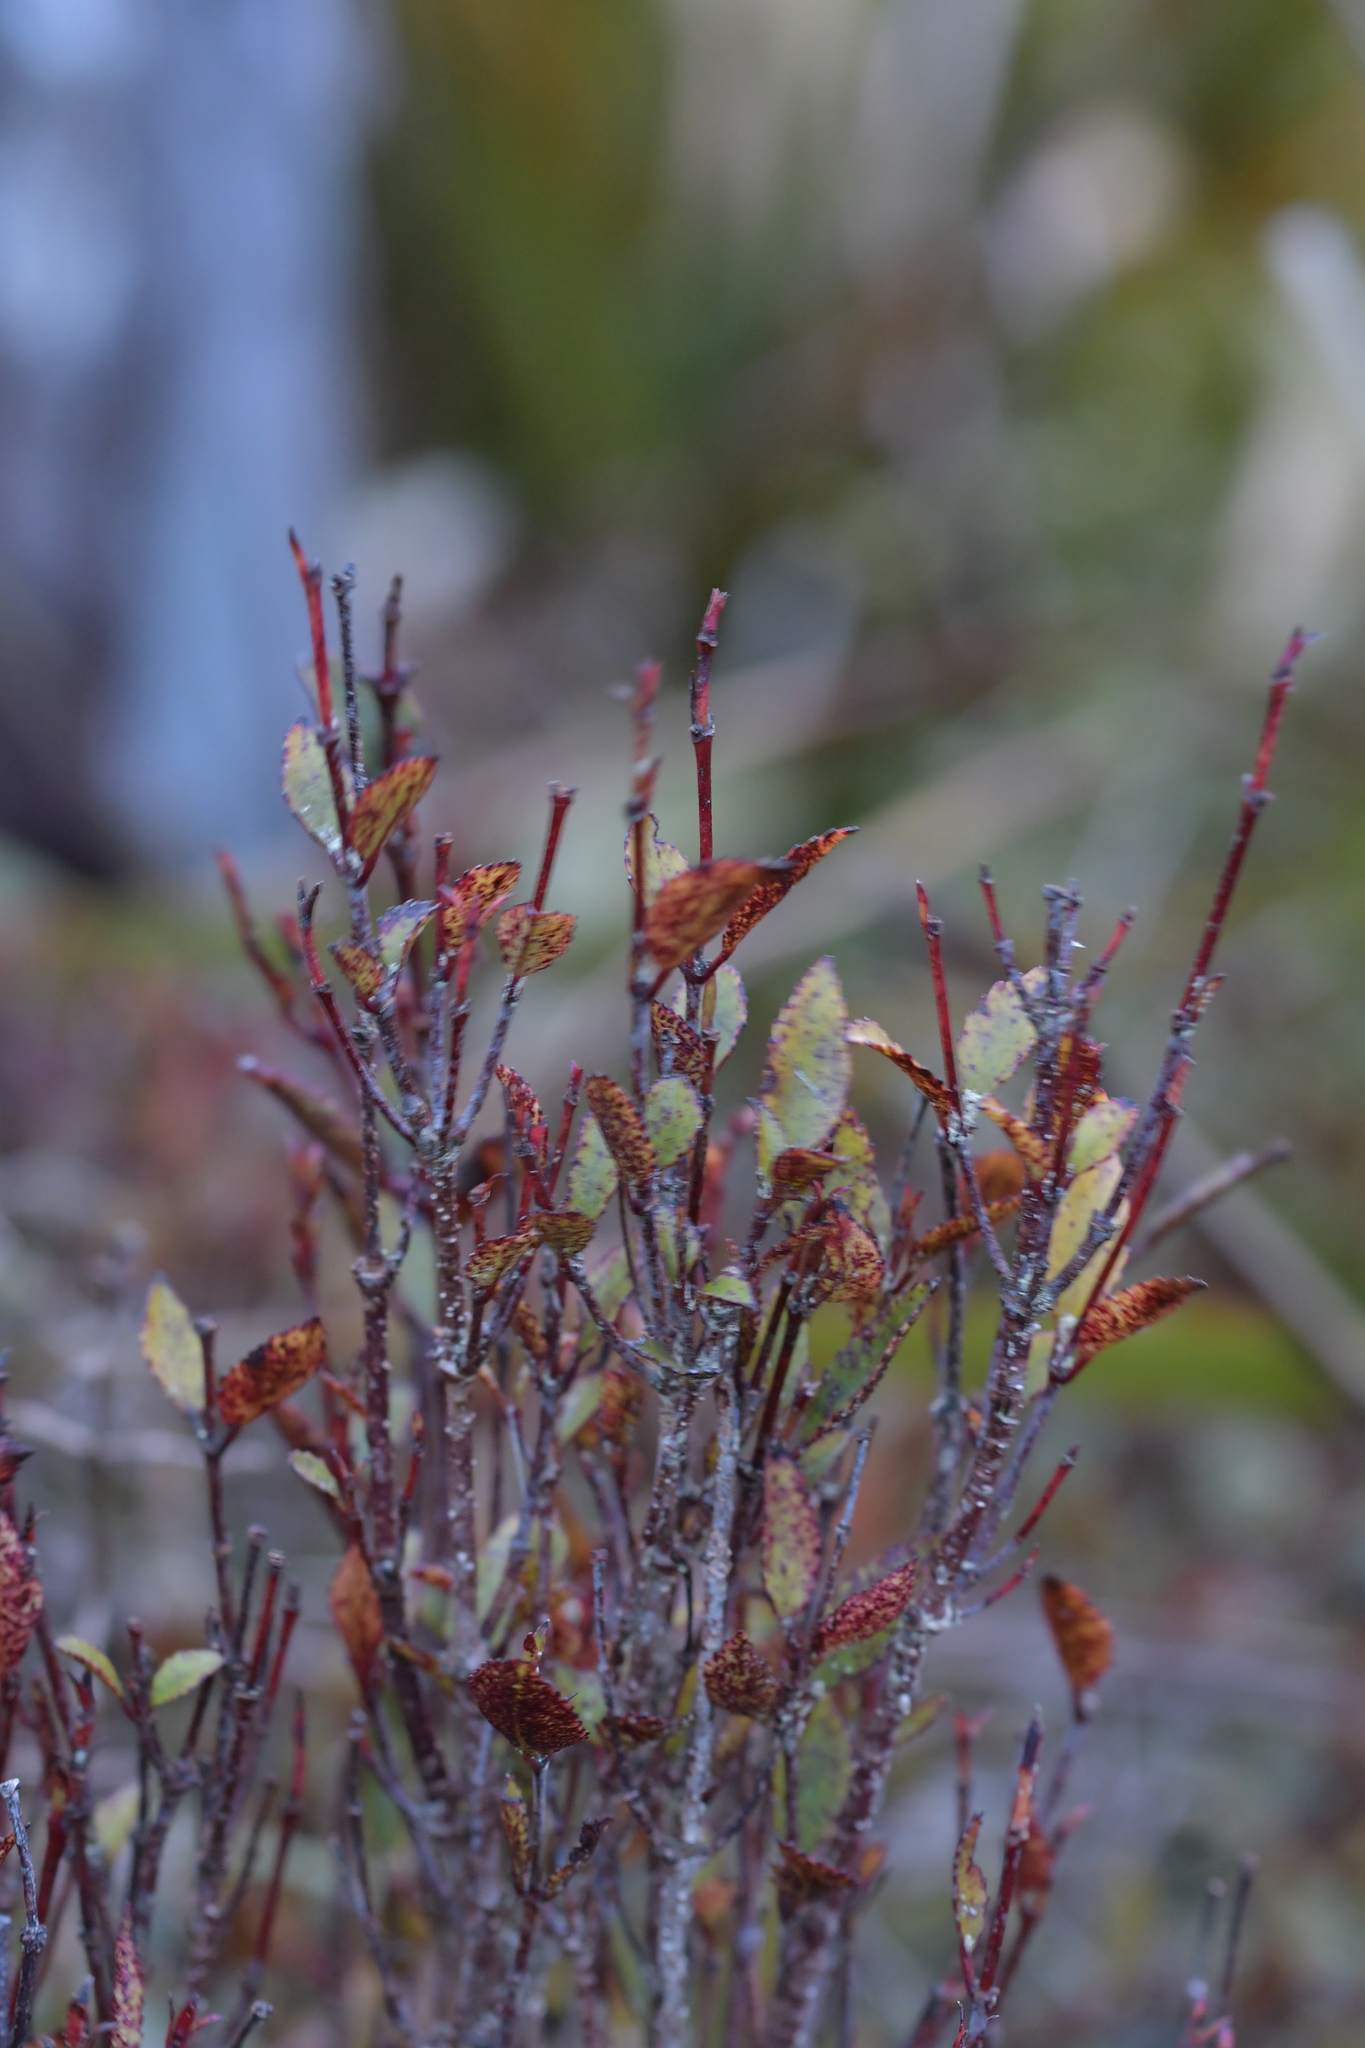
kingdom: Plantae
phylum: Tracheophyta
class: Magnoliopsida
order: Oxalidales
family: Cunoniaceae
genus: Pterophylla
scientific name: Pterophylla racemosa
